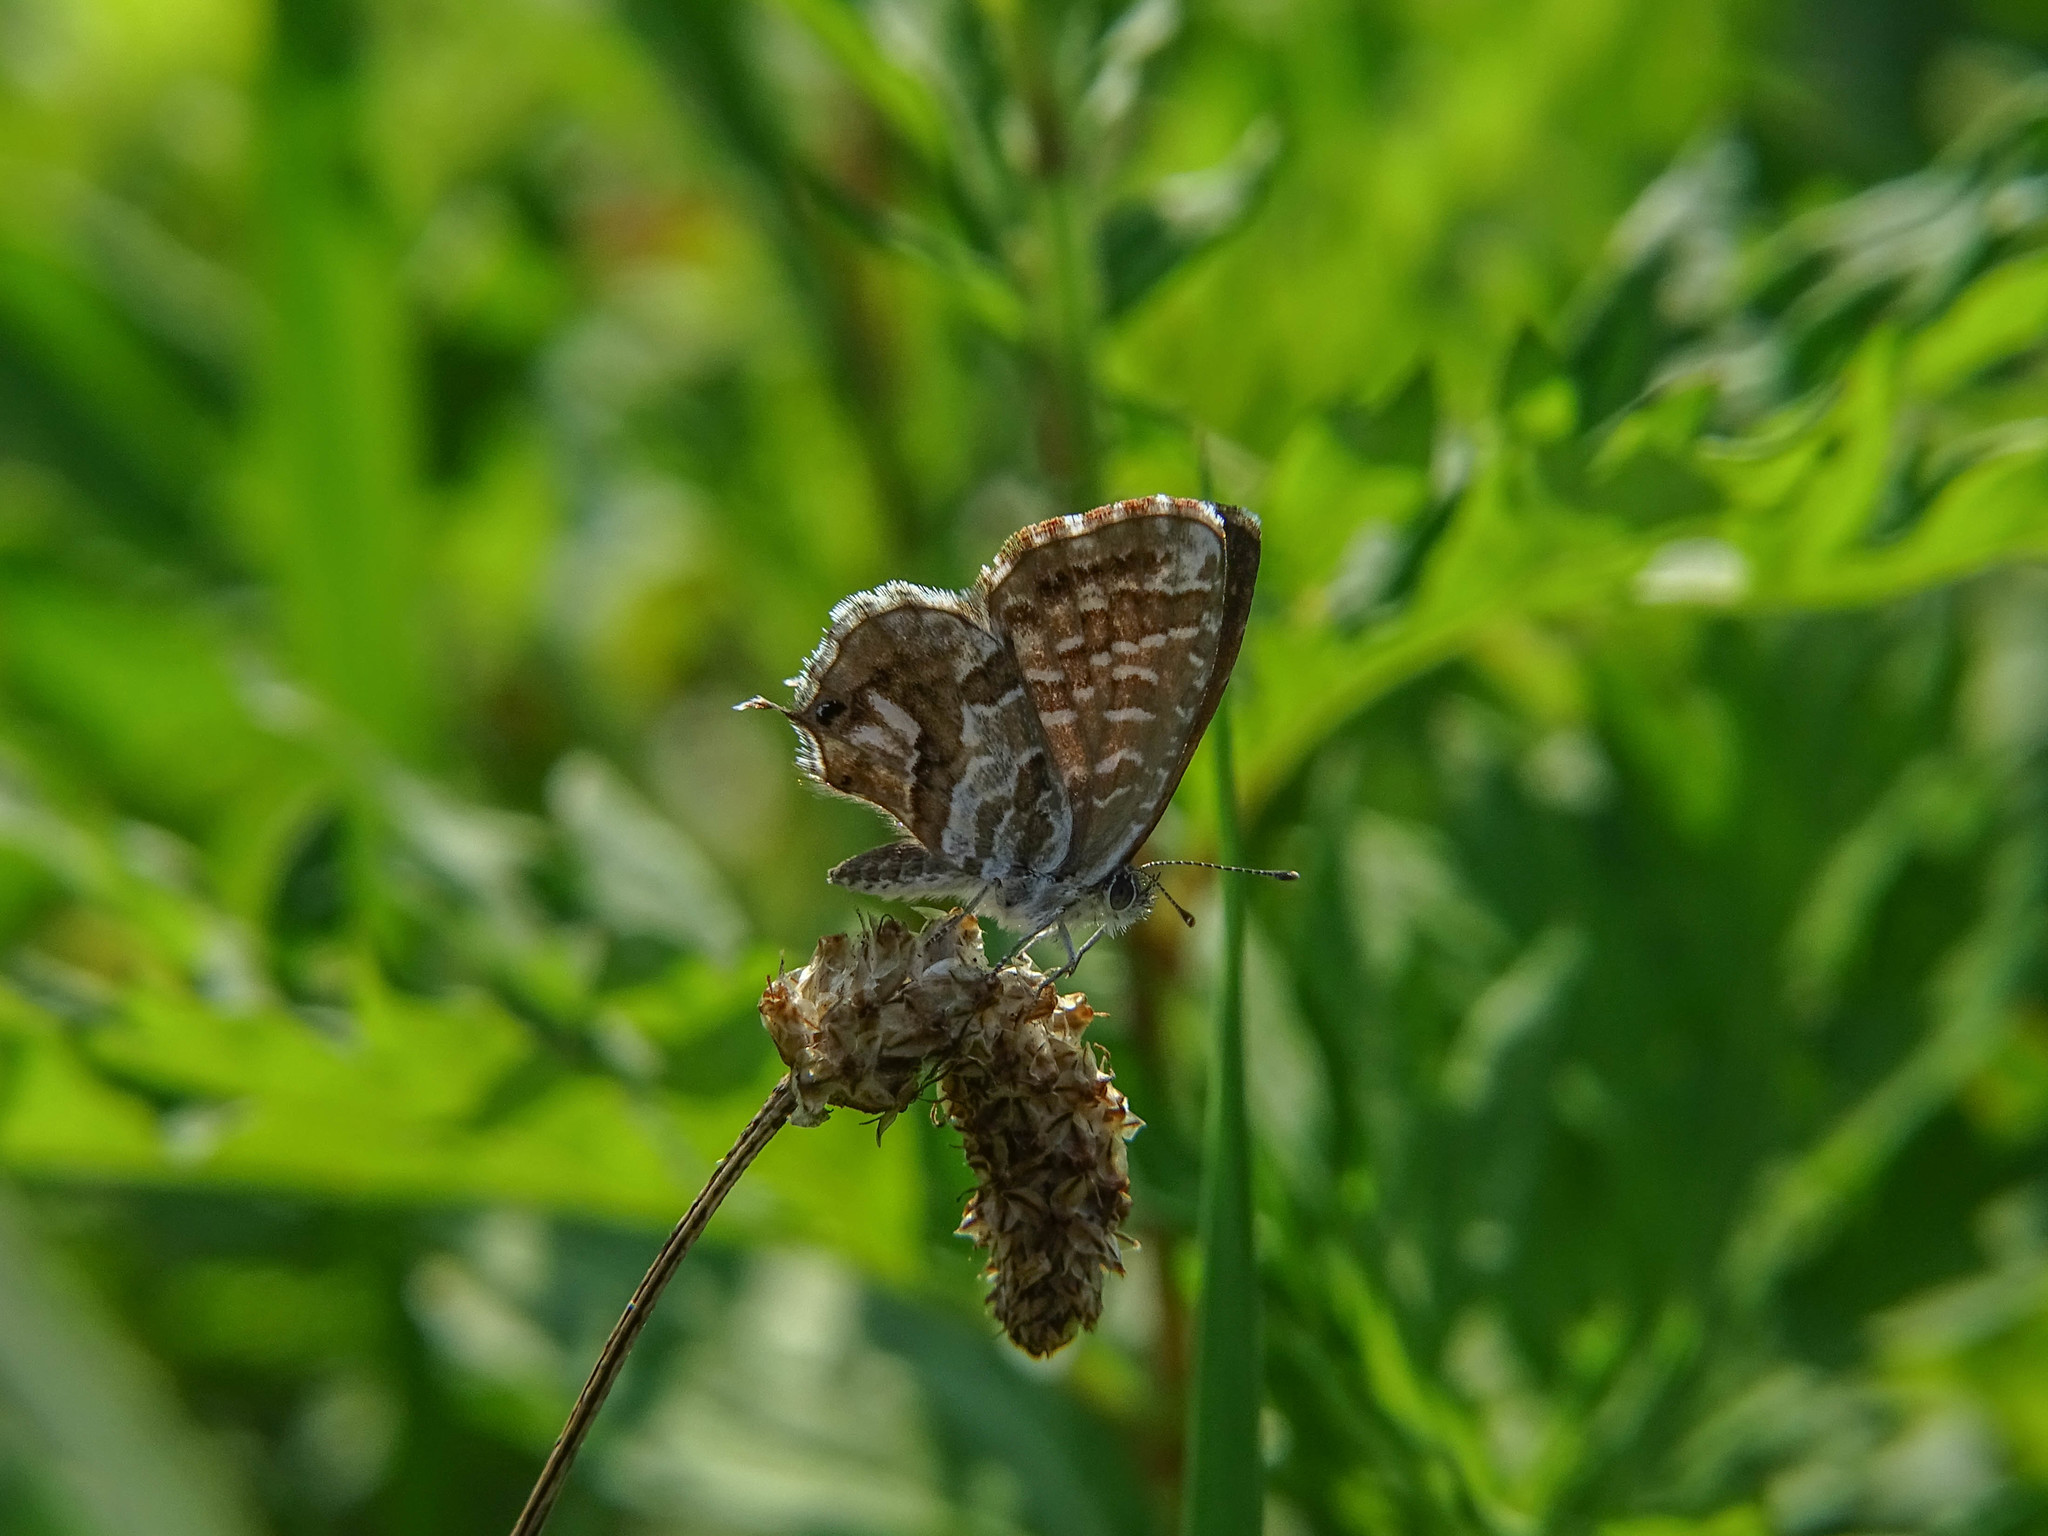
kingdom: Animalia
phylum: Arthropoda
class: Insecta
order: Lepidoptera
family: Lycaenidae
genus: Cacyreus
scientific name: Cacyreus marshalli
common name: Geranium bronze
